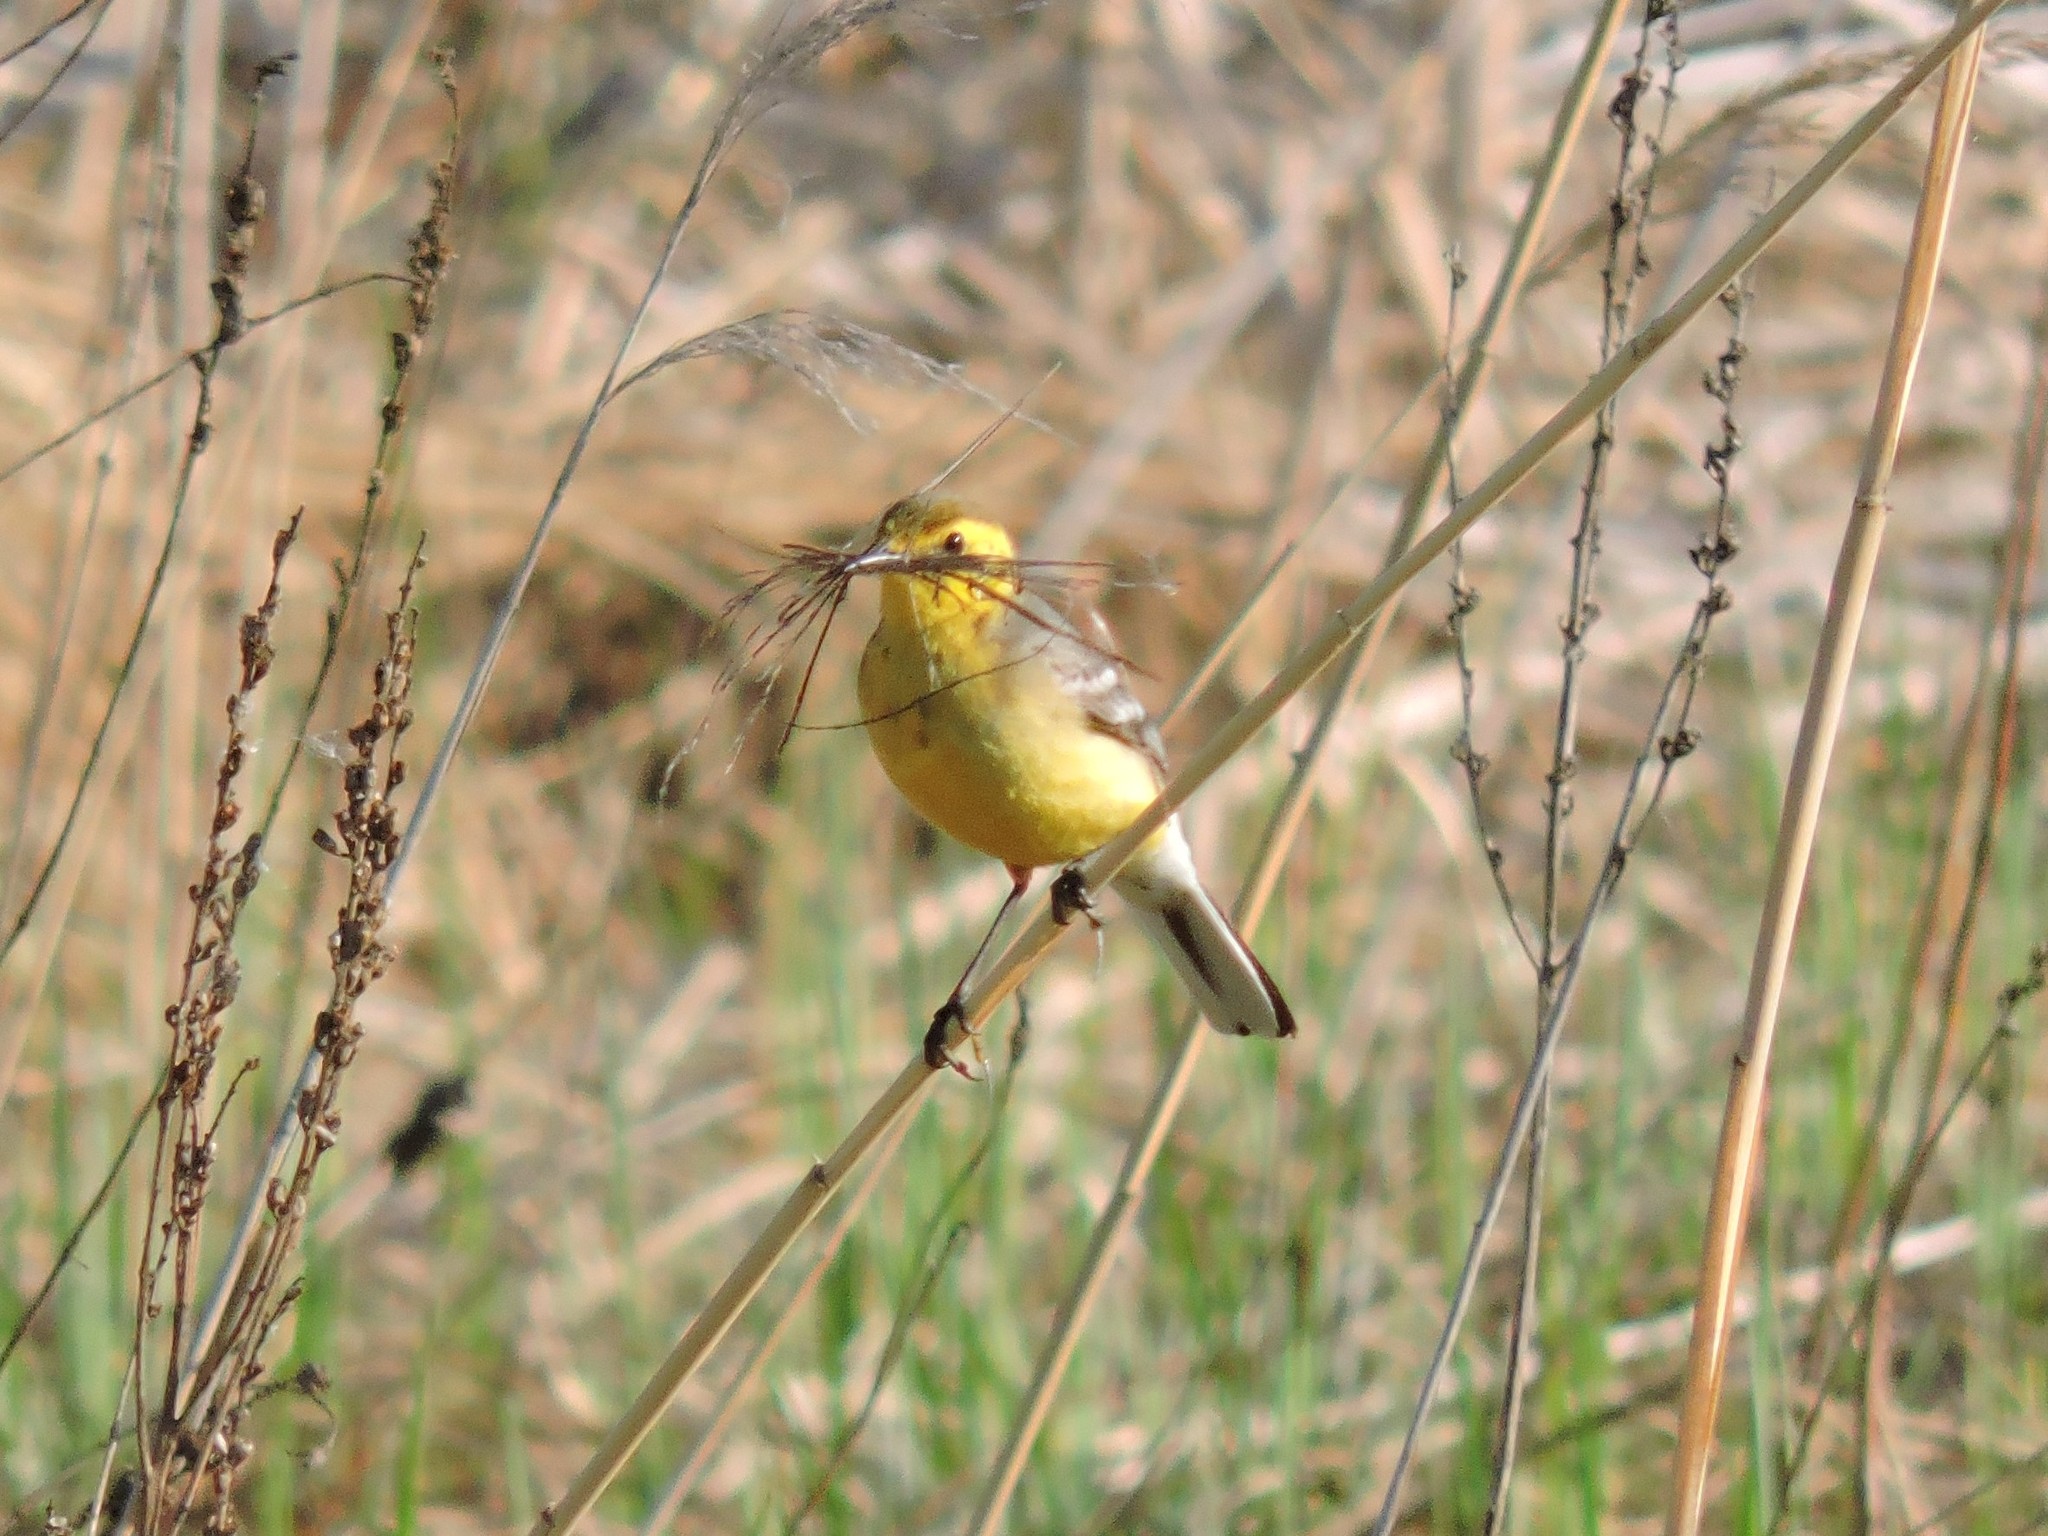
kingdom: Animalia
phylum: Chordata
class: Aves
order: Passeriformes
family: Motacillidae
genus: Motacilla
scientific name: Motacilla citreola
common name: Citrine wagtail
